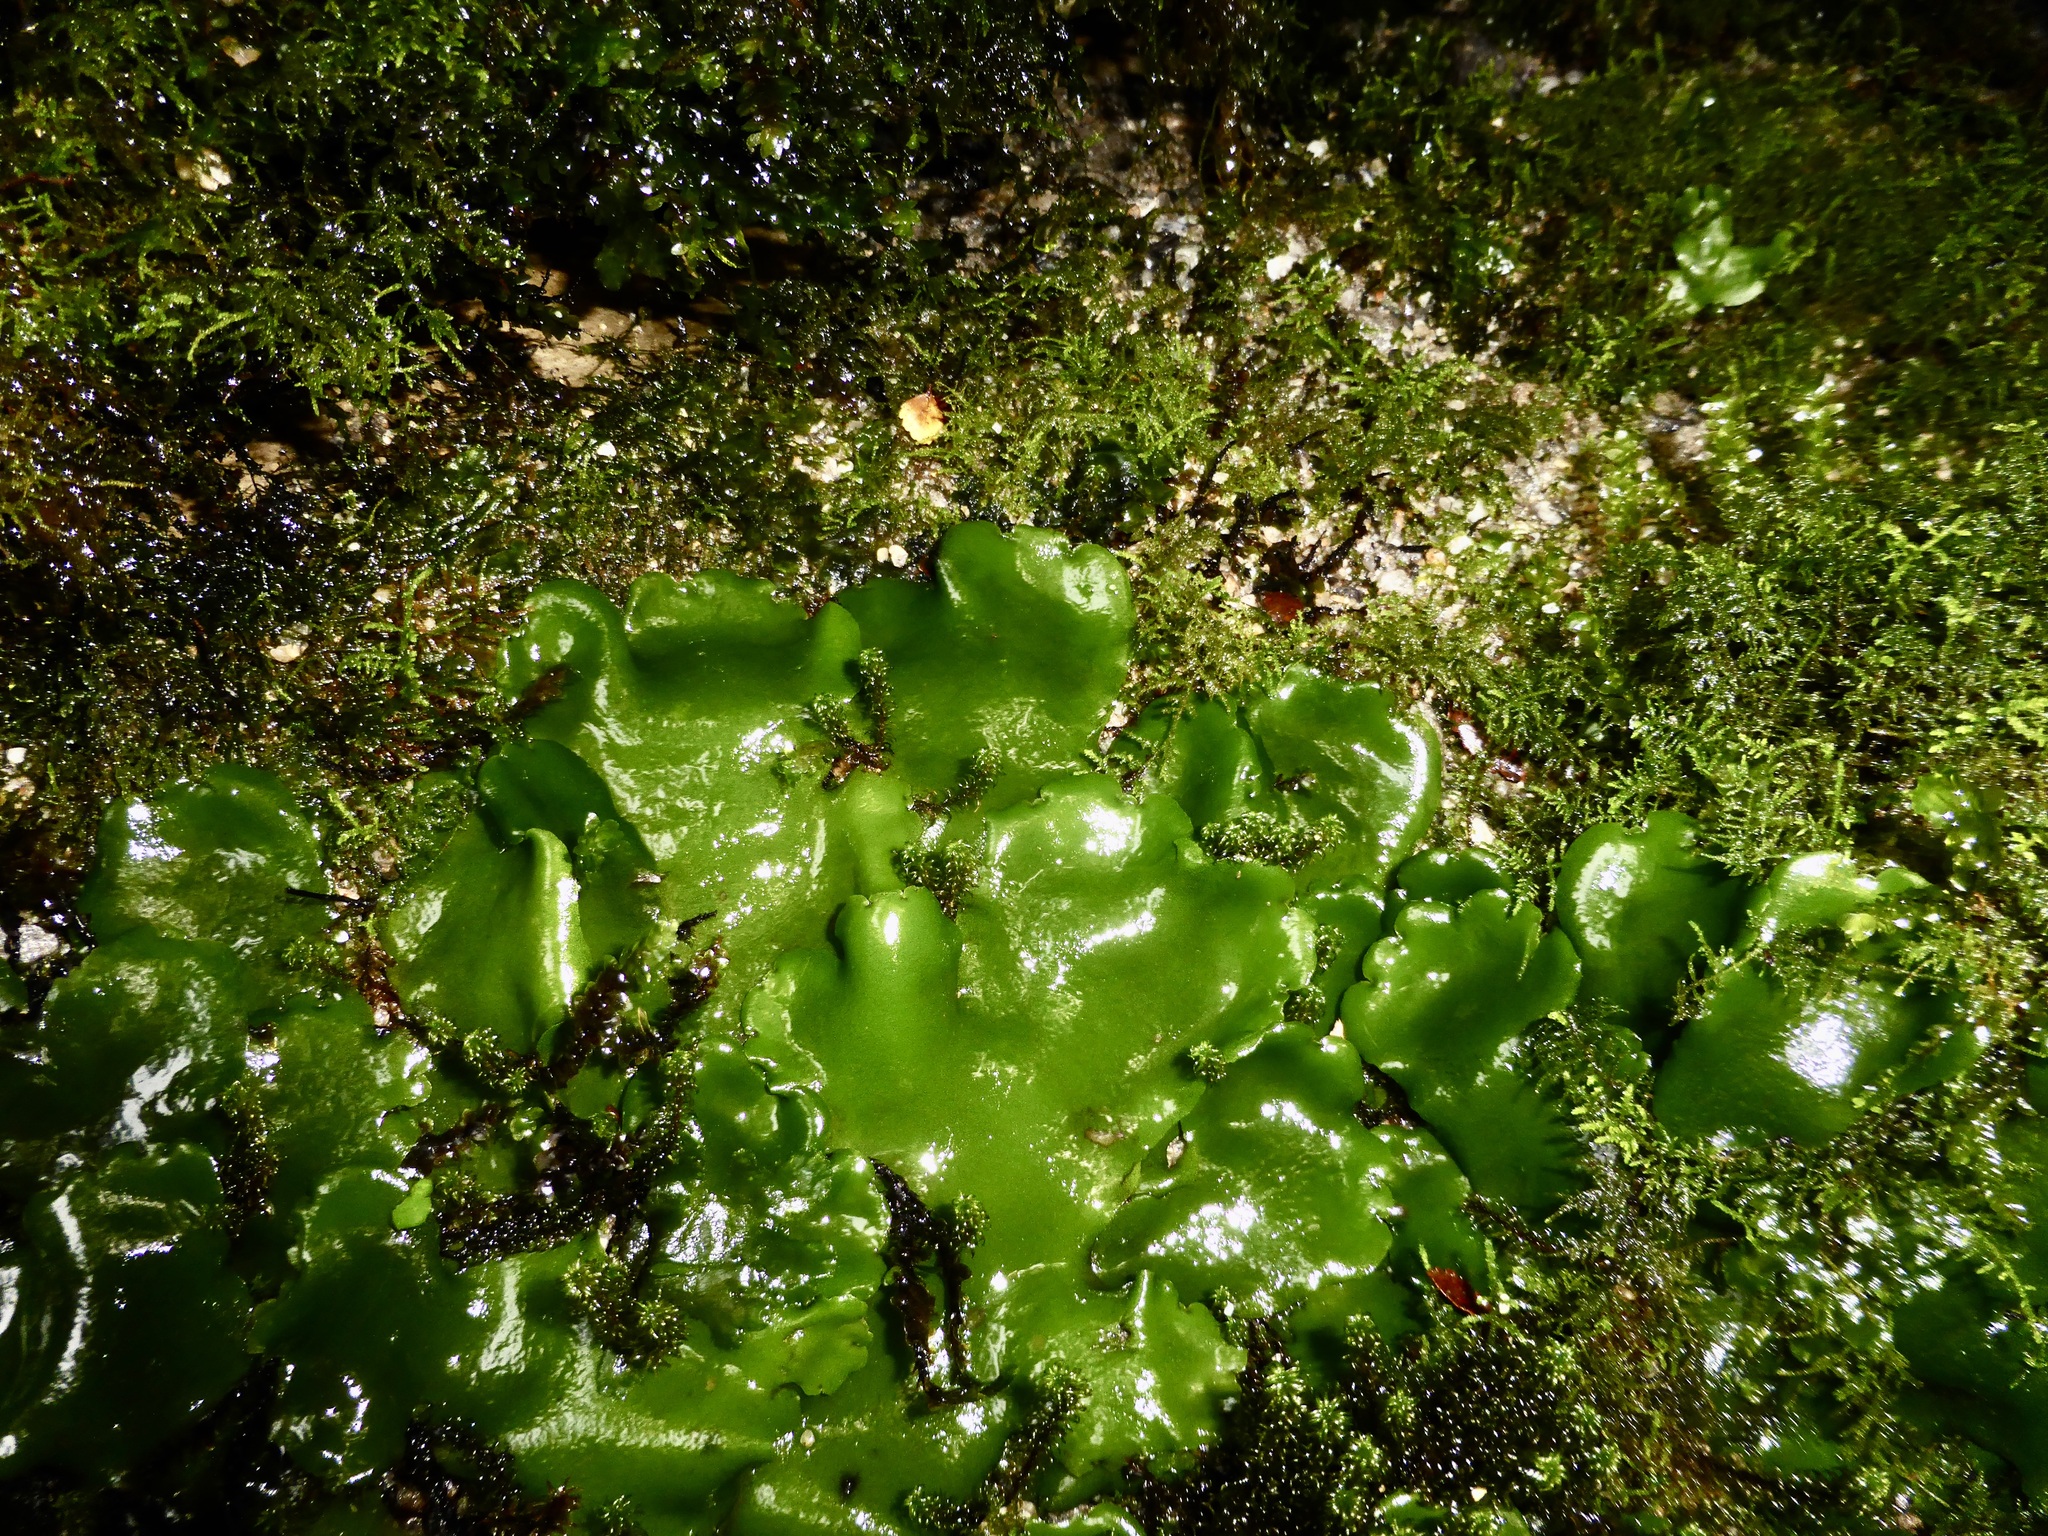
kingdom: Plantae
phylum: Marchantiophyta
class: Marchantiopsida
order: Marchantiales
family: Monocleaceae
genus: Monoclea
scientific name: Monoclea forsteri
